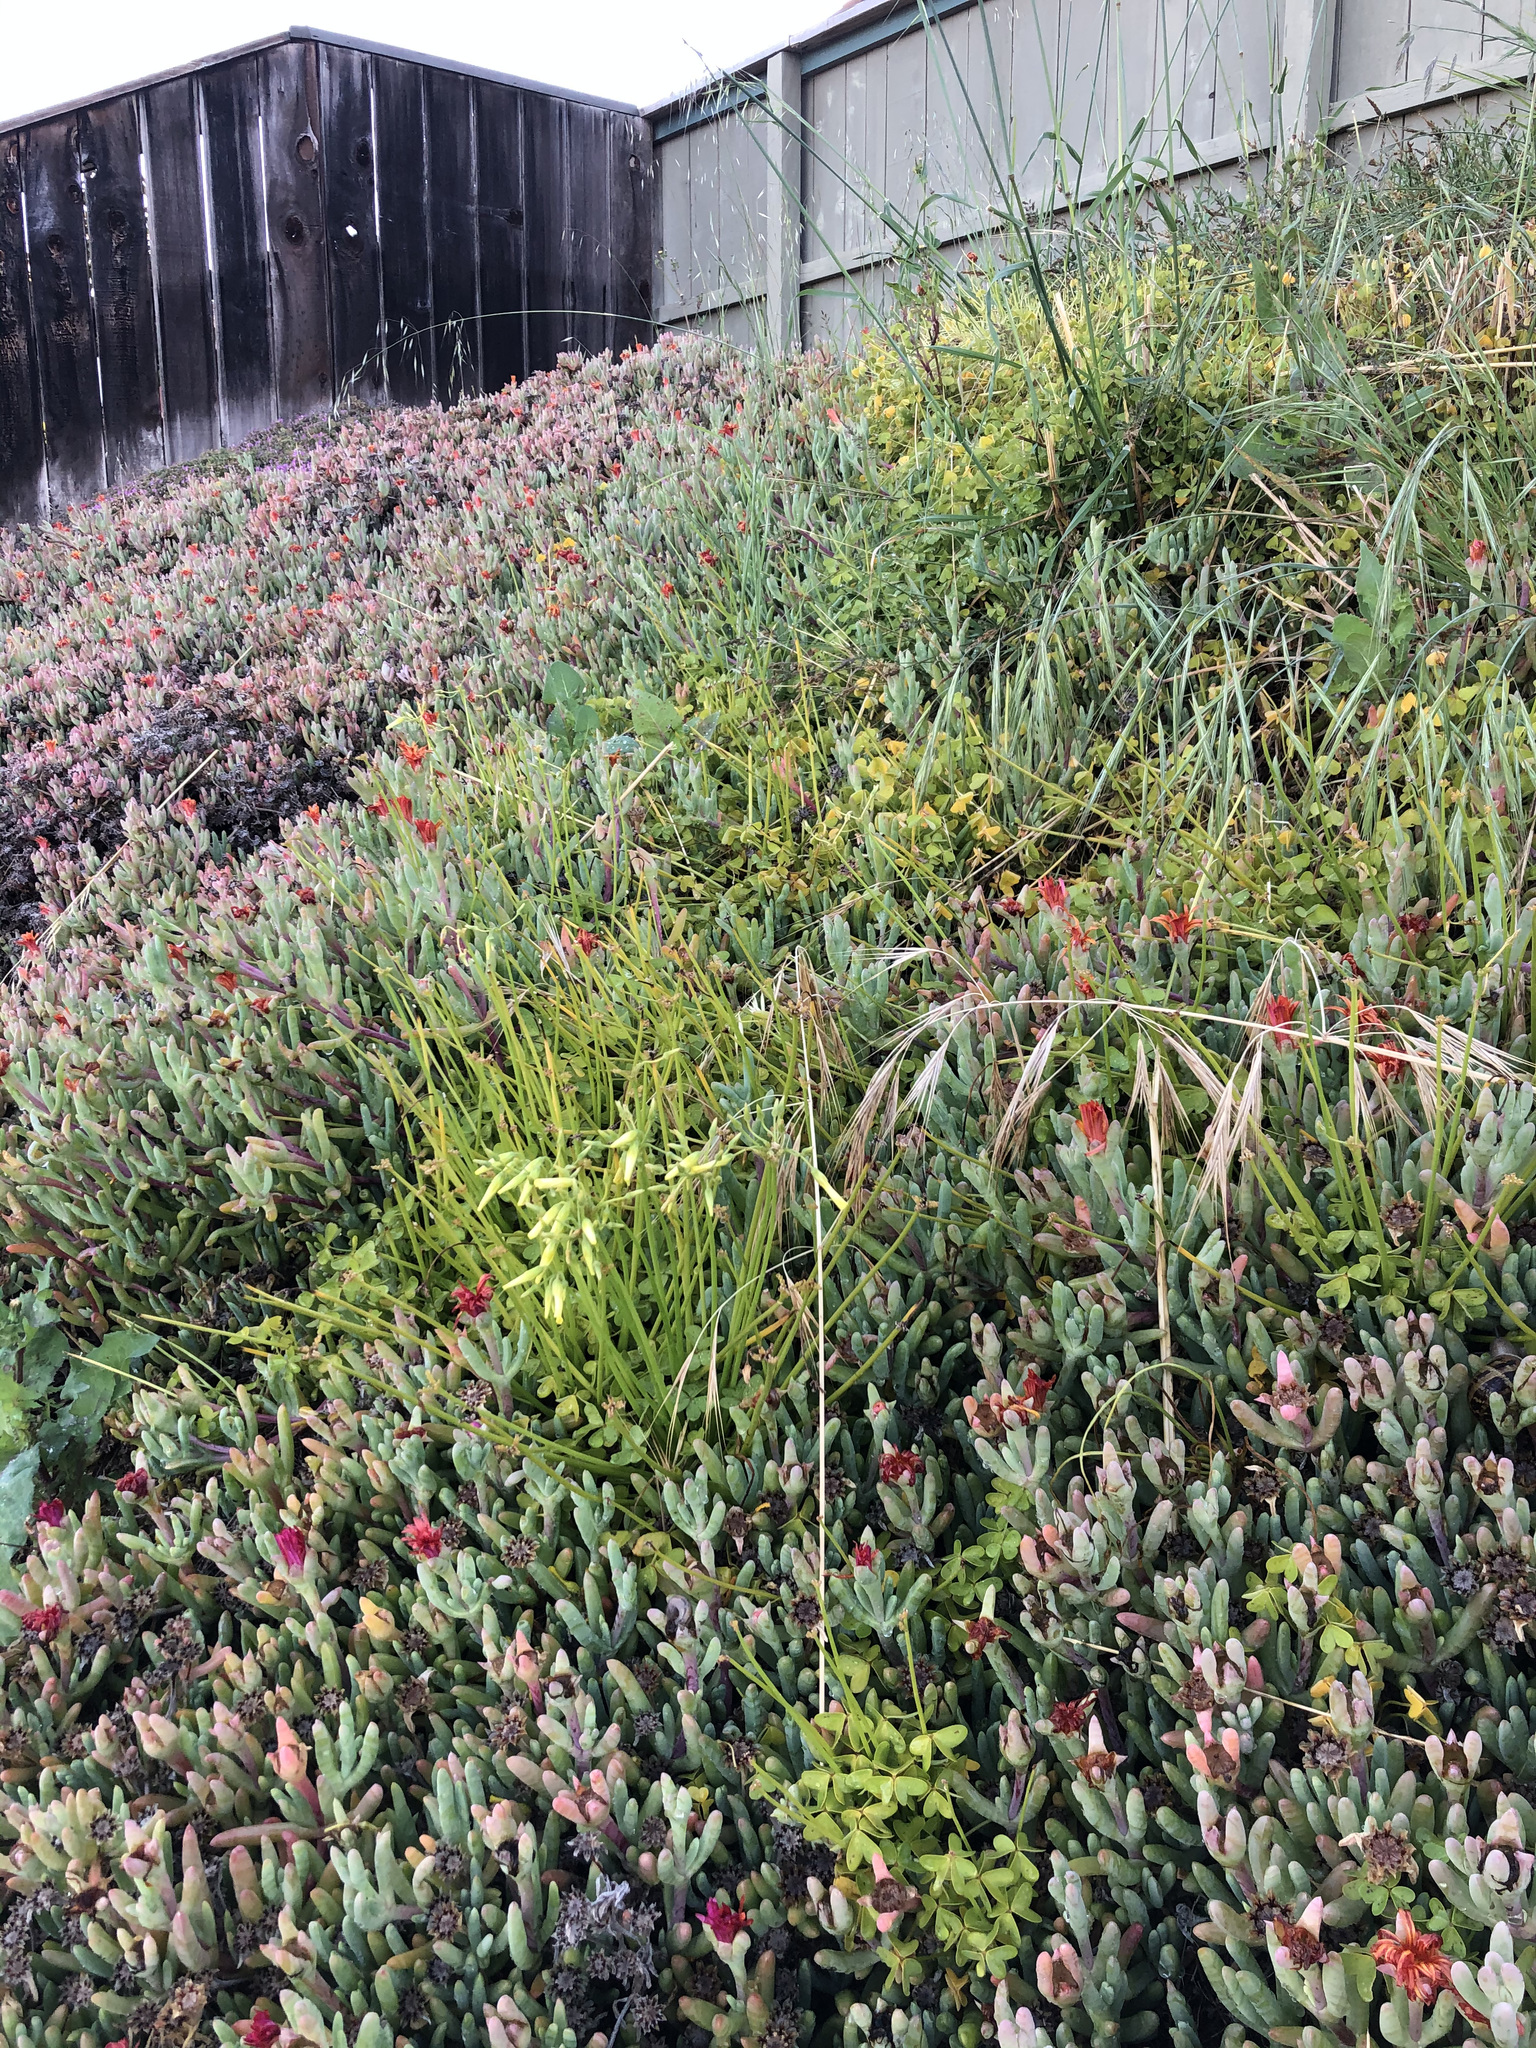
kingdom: Plantae
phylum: Tracheophyta
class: Magnoliopsida
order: Oxalidales
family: Oxalidaceae
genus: Oxalis
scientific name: Oxalis pes-caprae
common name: Bermuda-buttercup
